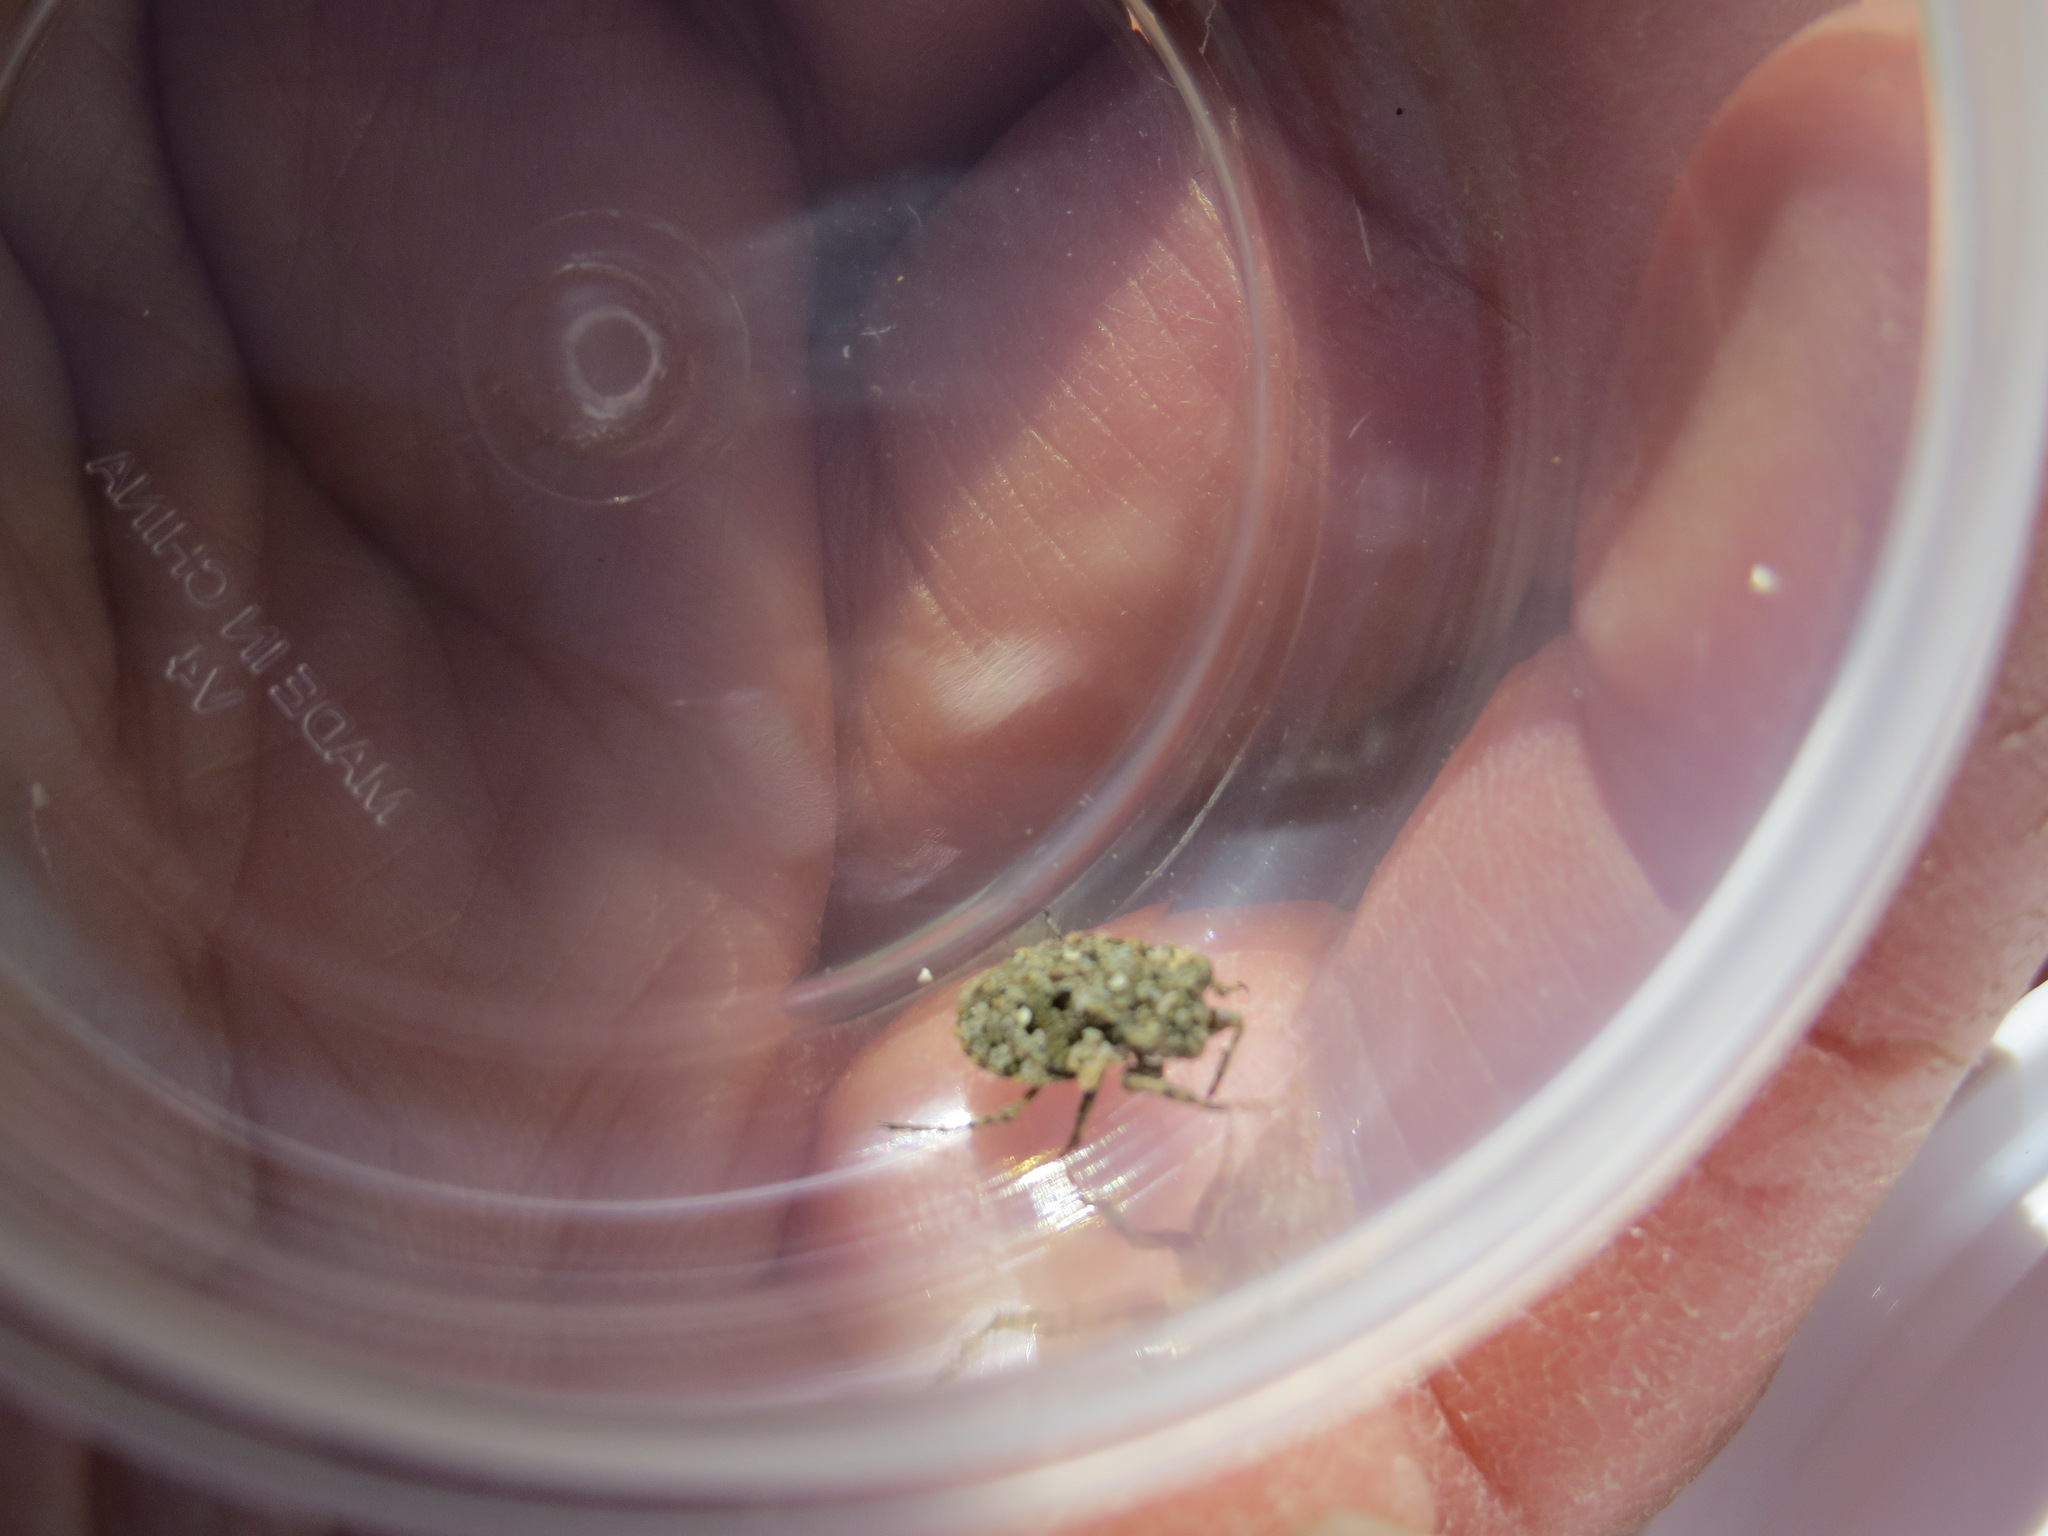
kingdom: Animalia
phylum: Arthropoda
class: Insecta
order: Hemiptera
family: Gelastocoridae
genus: Gelastocoris
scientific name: Gelastocoris oculatus
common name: Toad bug
